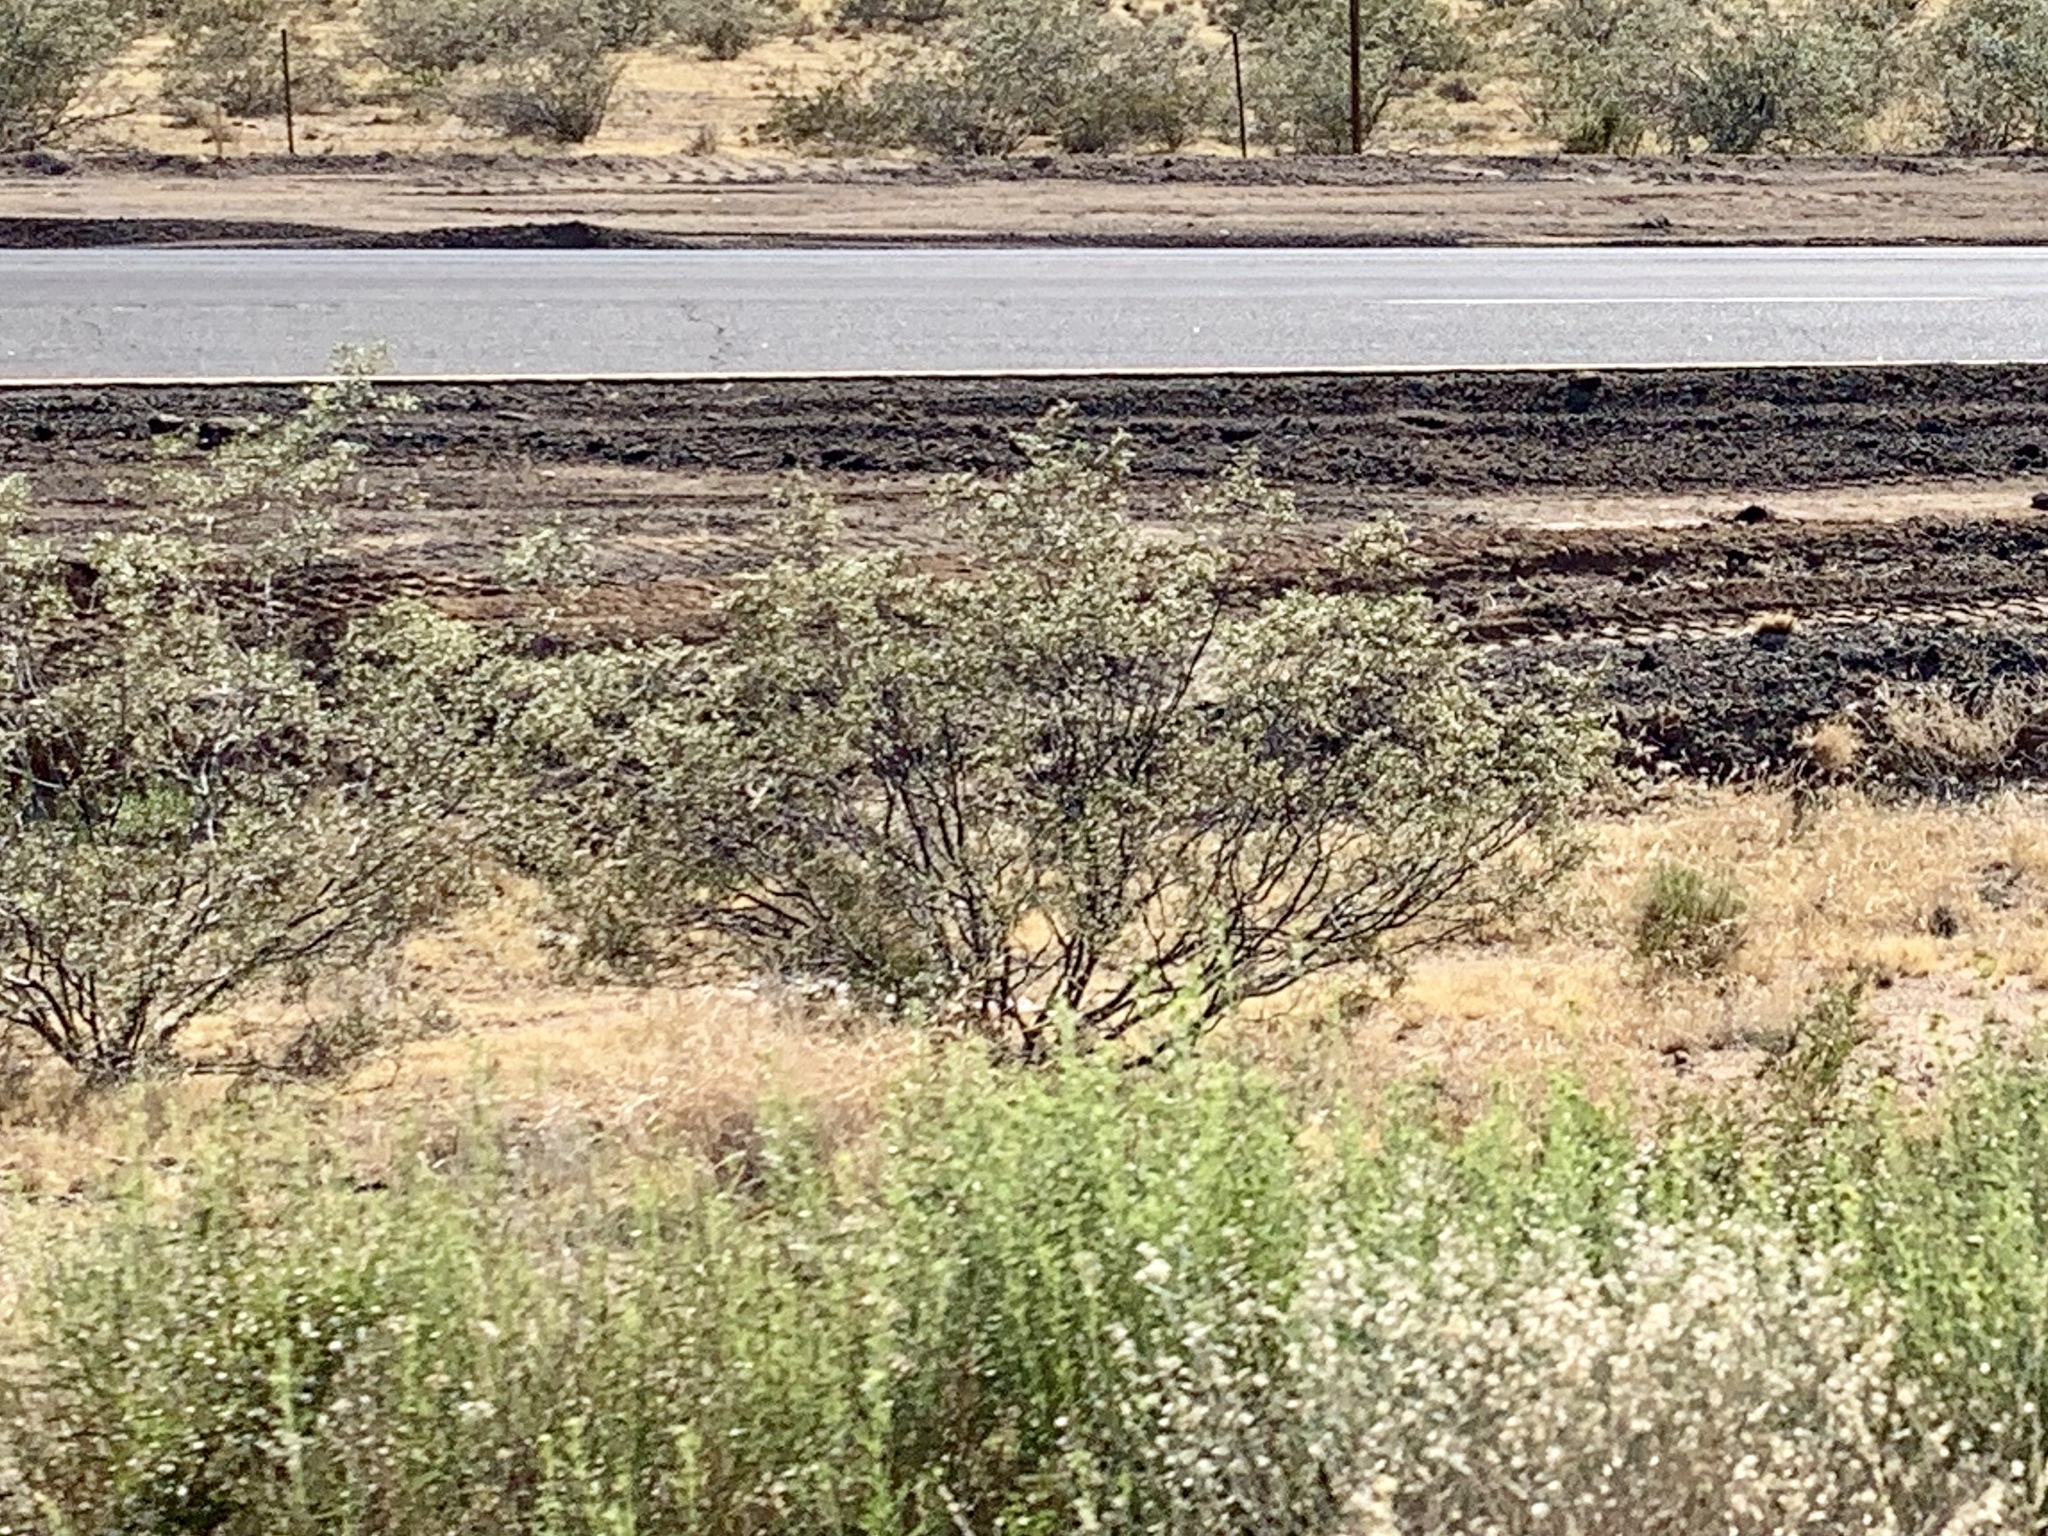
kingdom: Plantae
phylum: Tracheophyta
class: Magnoliopsida
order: Zygophyllales
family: Zygophyllaceae
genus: Larrea
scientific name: Larrea tridentata
